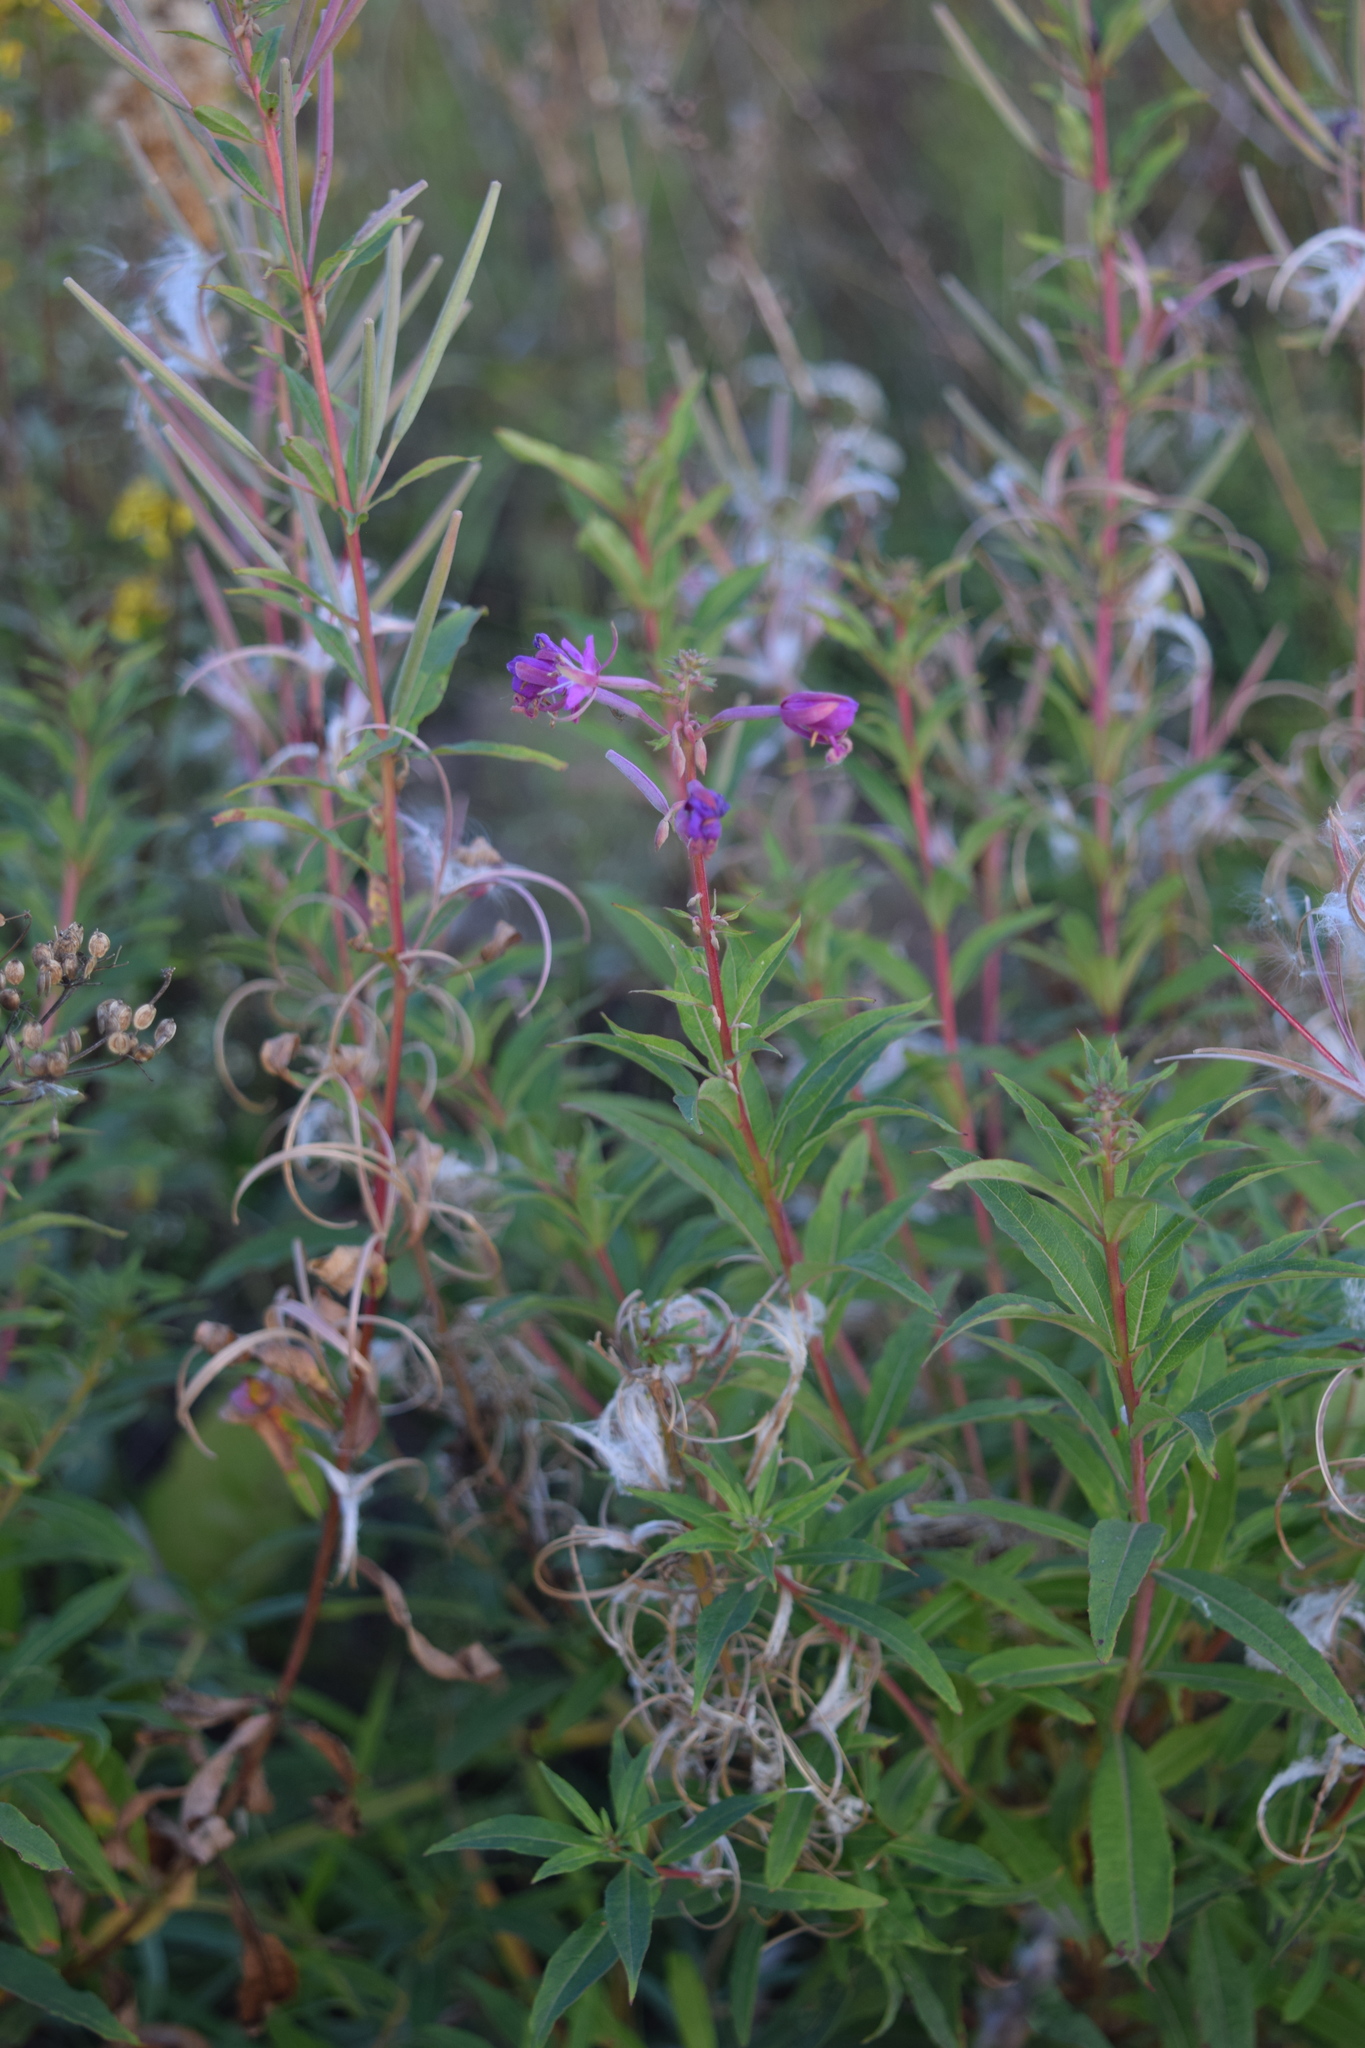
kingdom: Plantae
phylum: Tracheophyta
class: Magnoliopsida
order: Myrtales
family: Onagraceae
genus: Chamaenerion
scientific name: Chamaenerion angustifolium
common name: Fireweed
